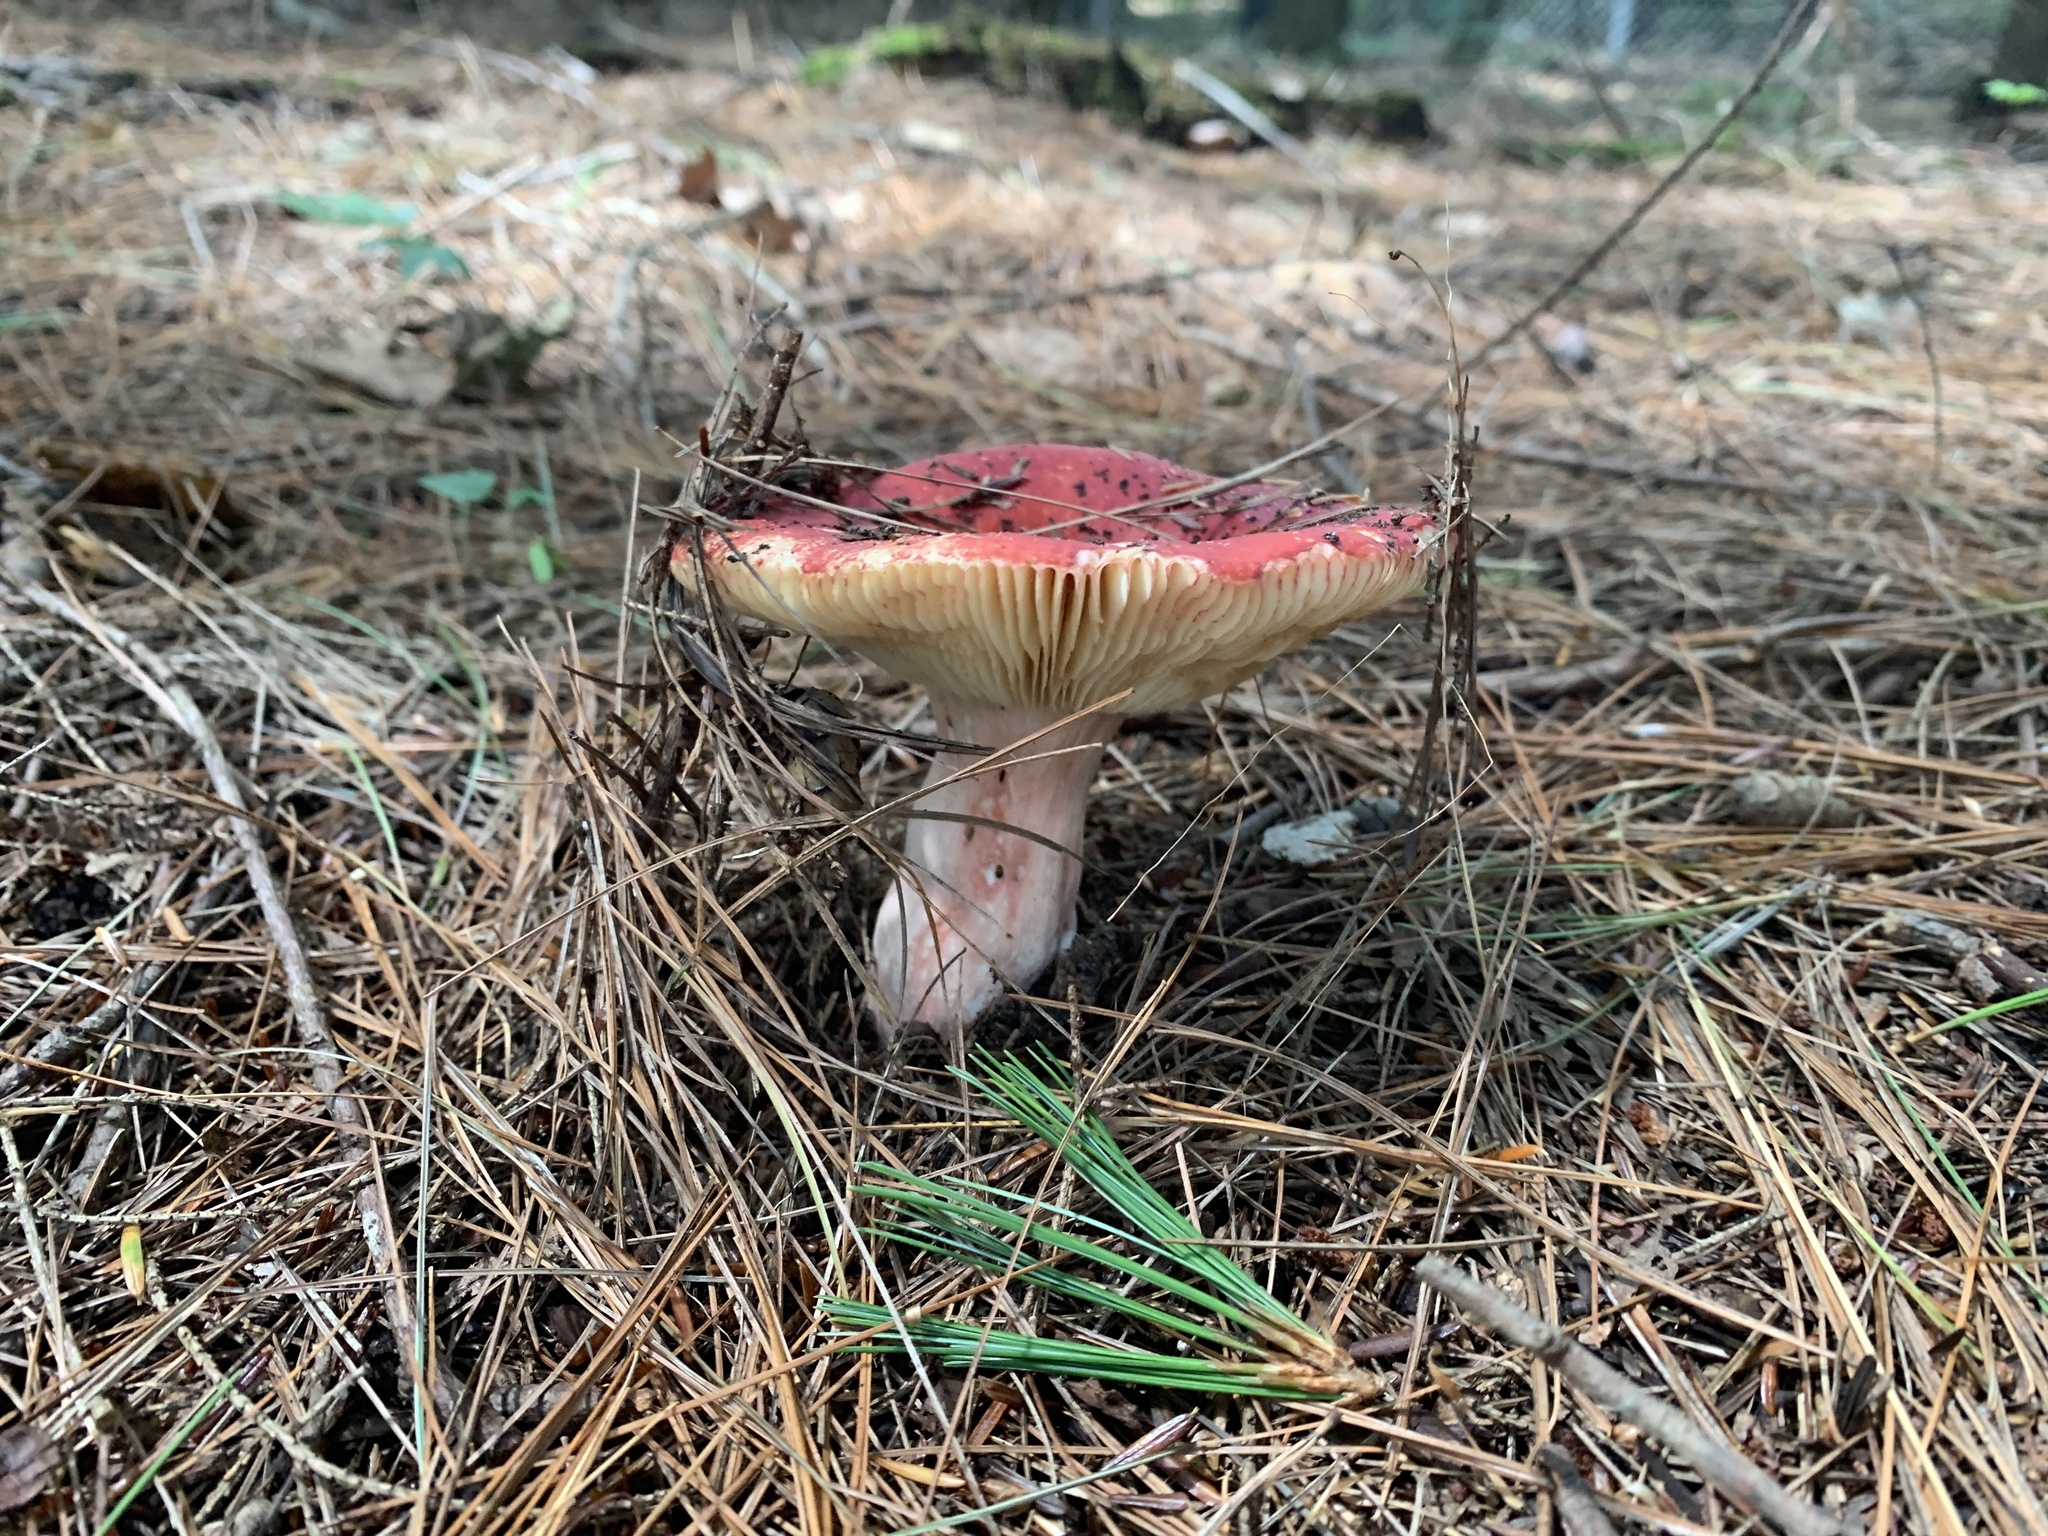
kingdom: Fungi
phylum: Basidiomycota
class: Agaricomycetes
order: Russulales
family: Russulaceae
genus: Russula
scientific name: Russula
